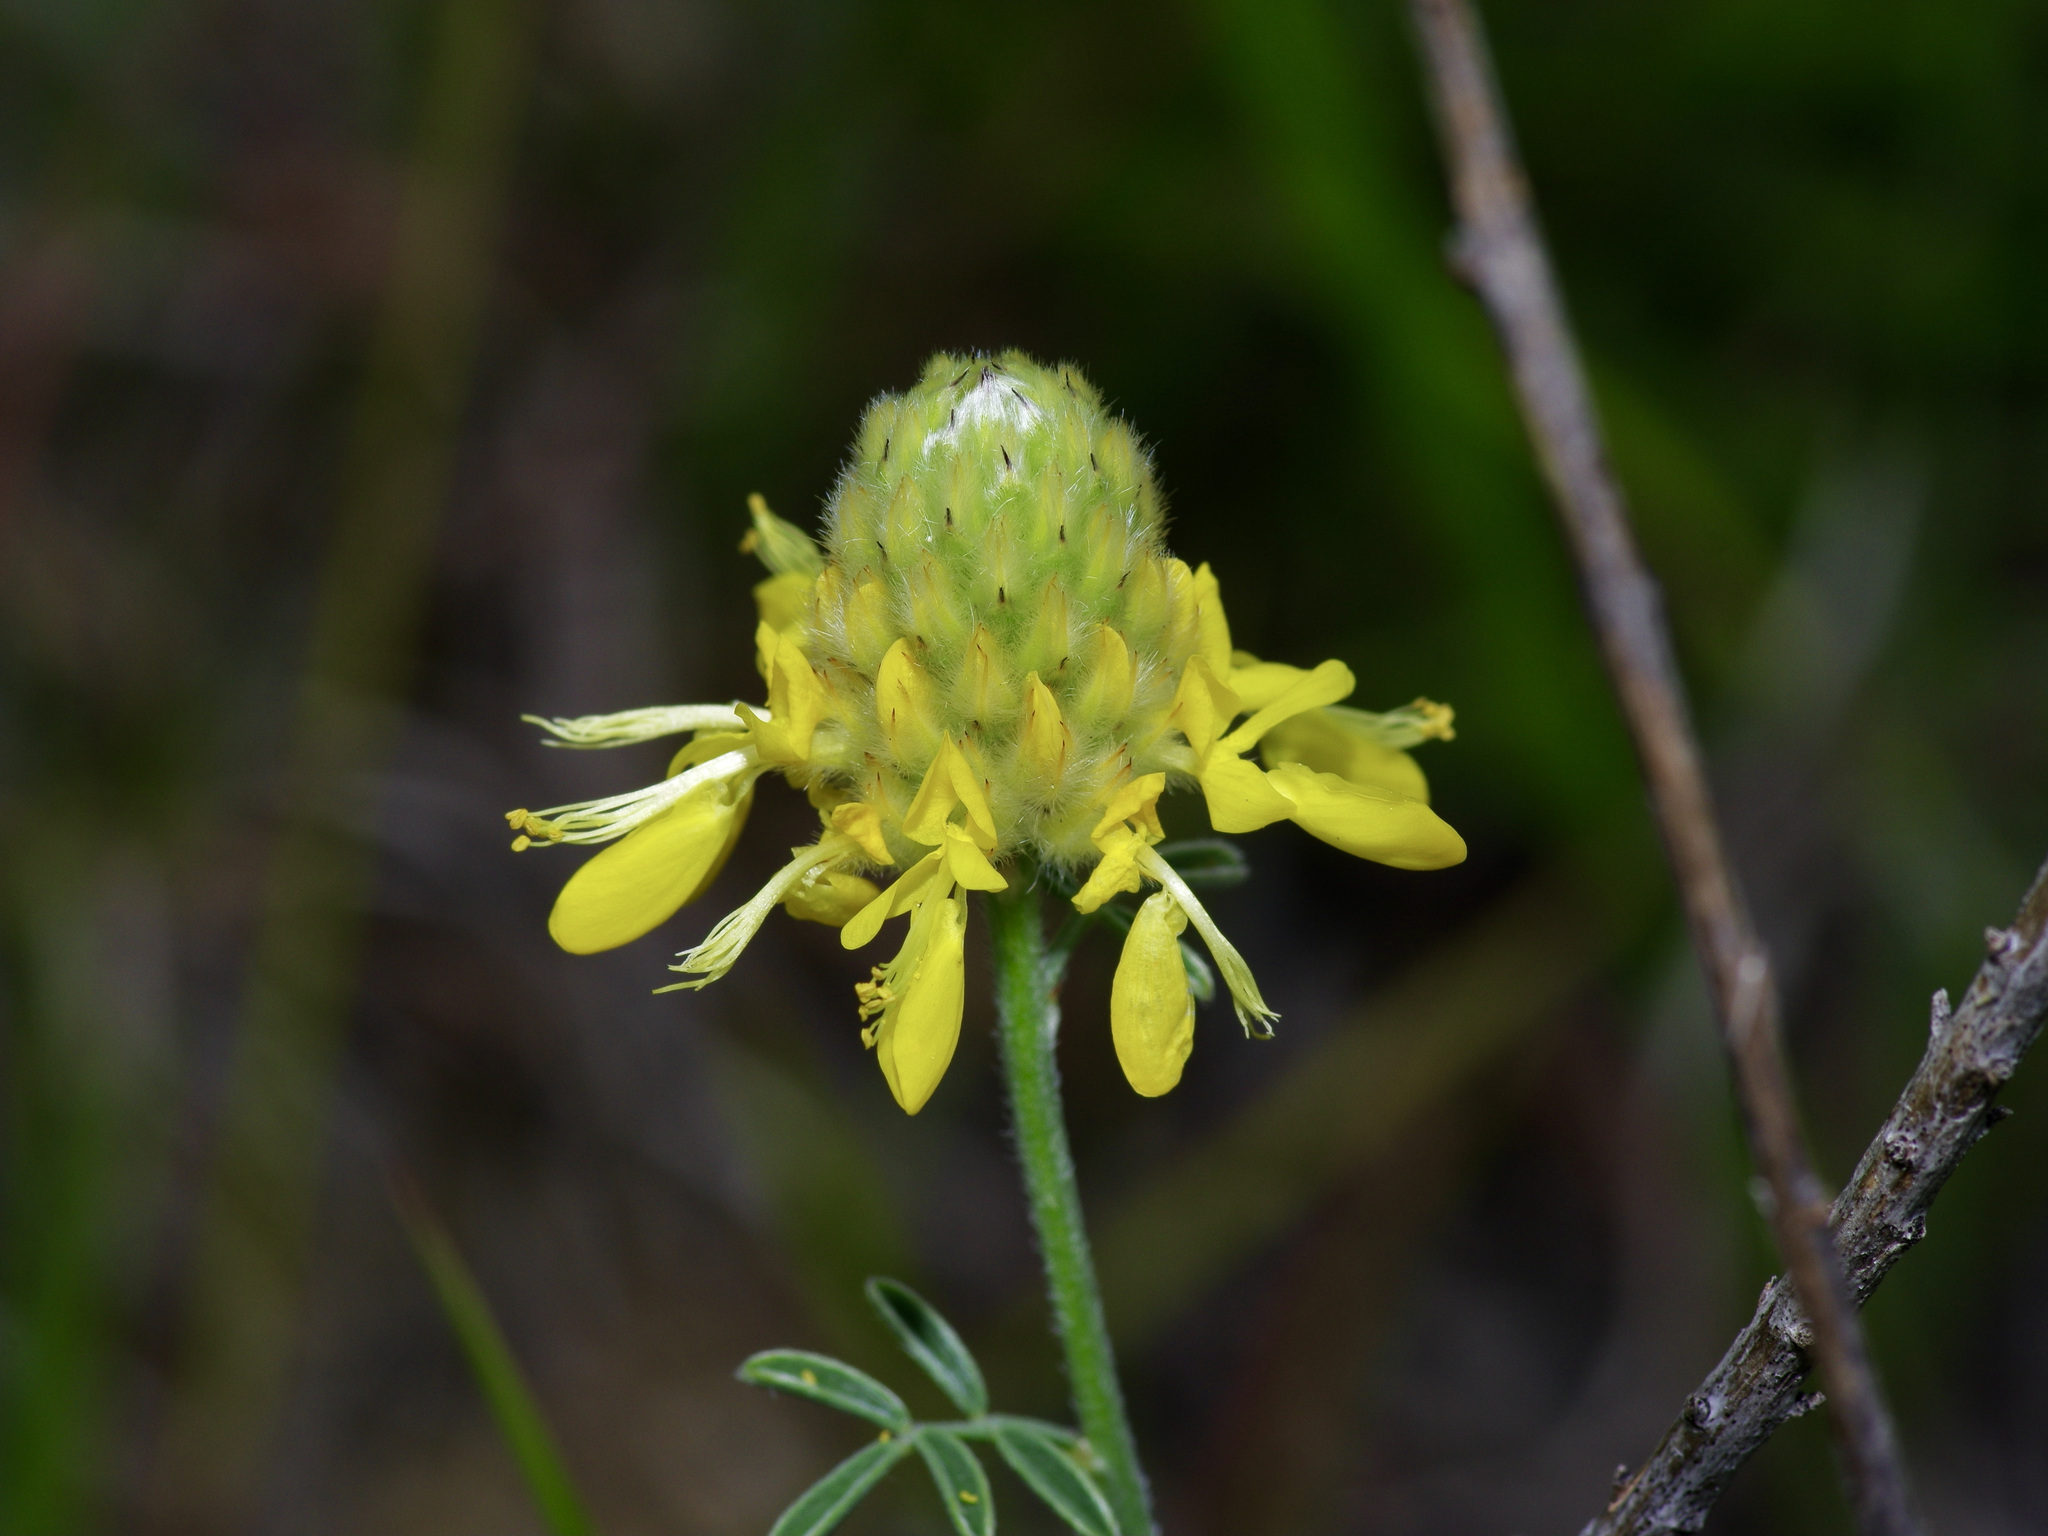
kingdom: Plantae
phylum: Tracheophyta
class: Magnoliopsida
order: Fabales
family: Fabaceae
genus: Dalea
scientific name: Dalea aurea
